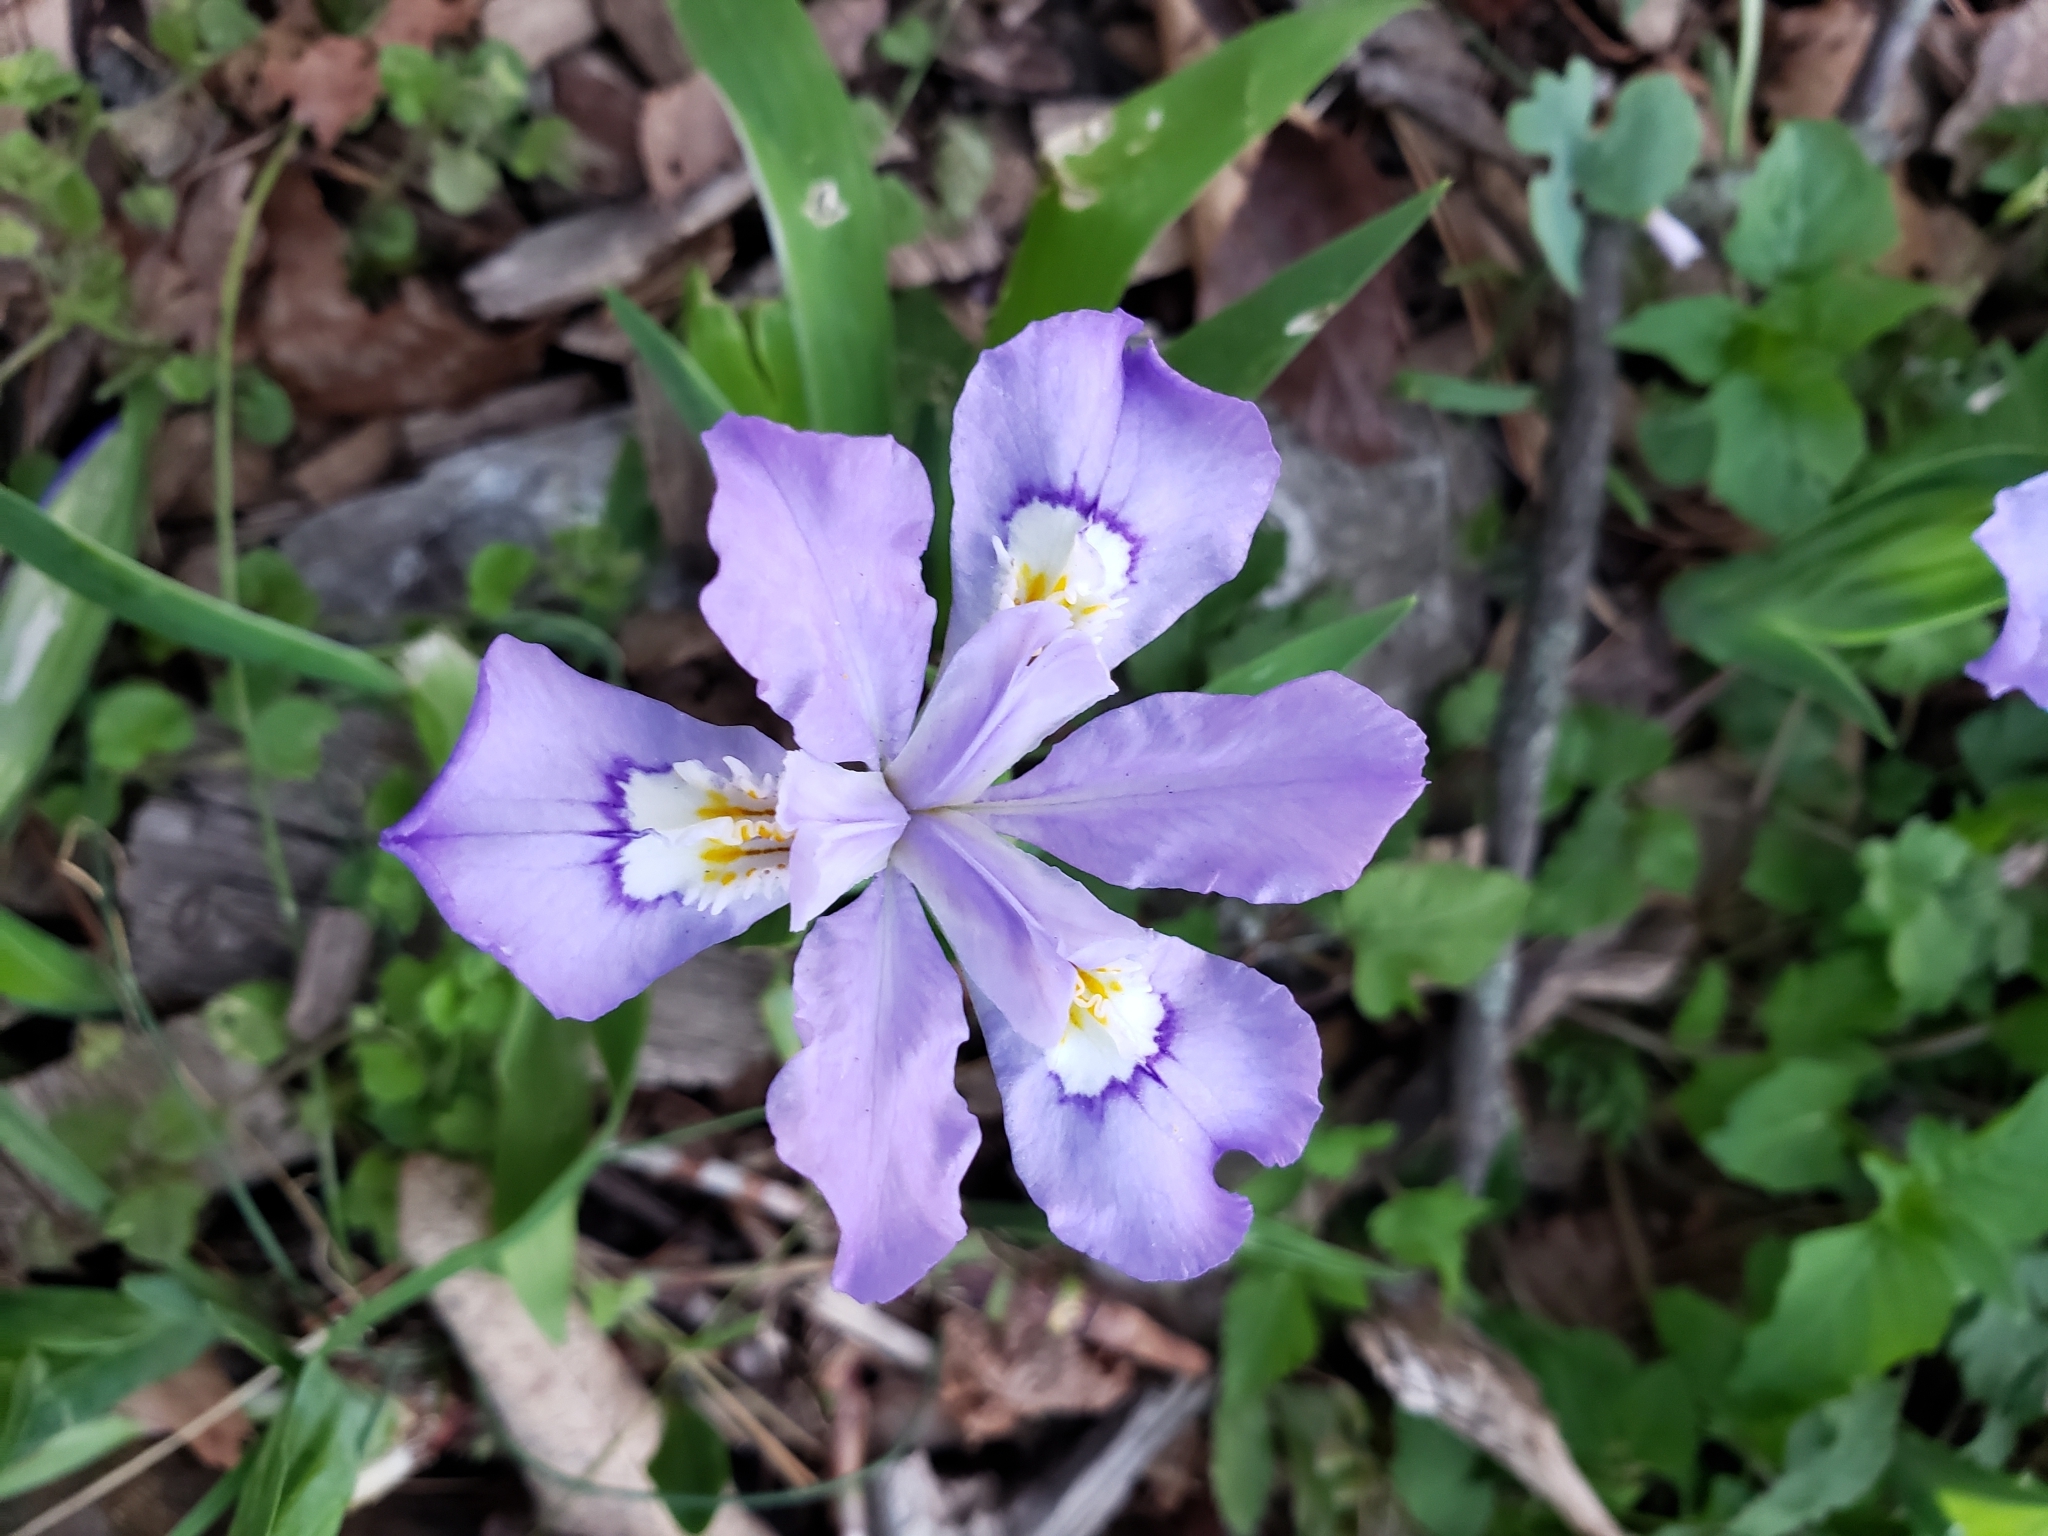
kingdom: Plantae
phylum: Tracheophyta
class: Liliopsida
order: Asparagales
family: Iridaceae
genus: Iris
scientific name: Iris cristata
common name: Crested iris
